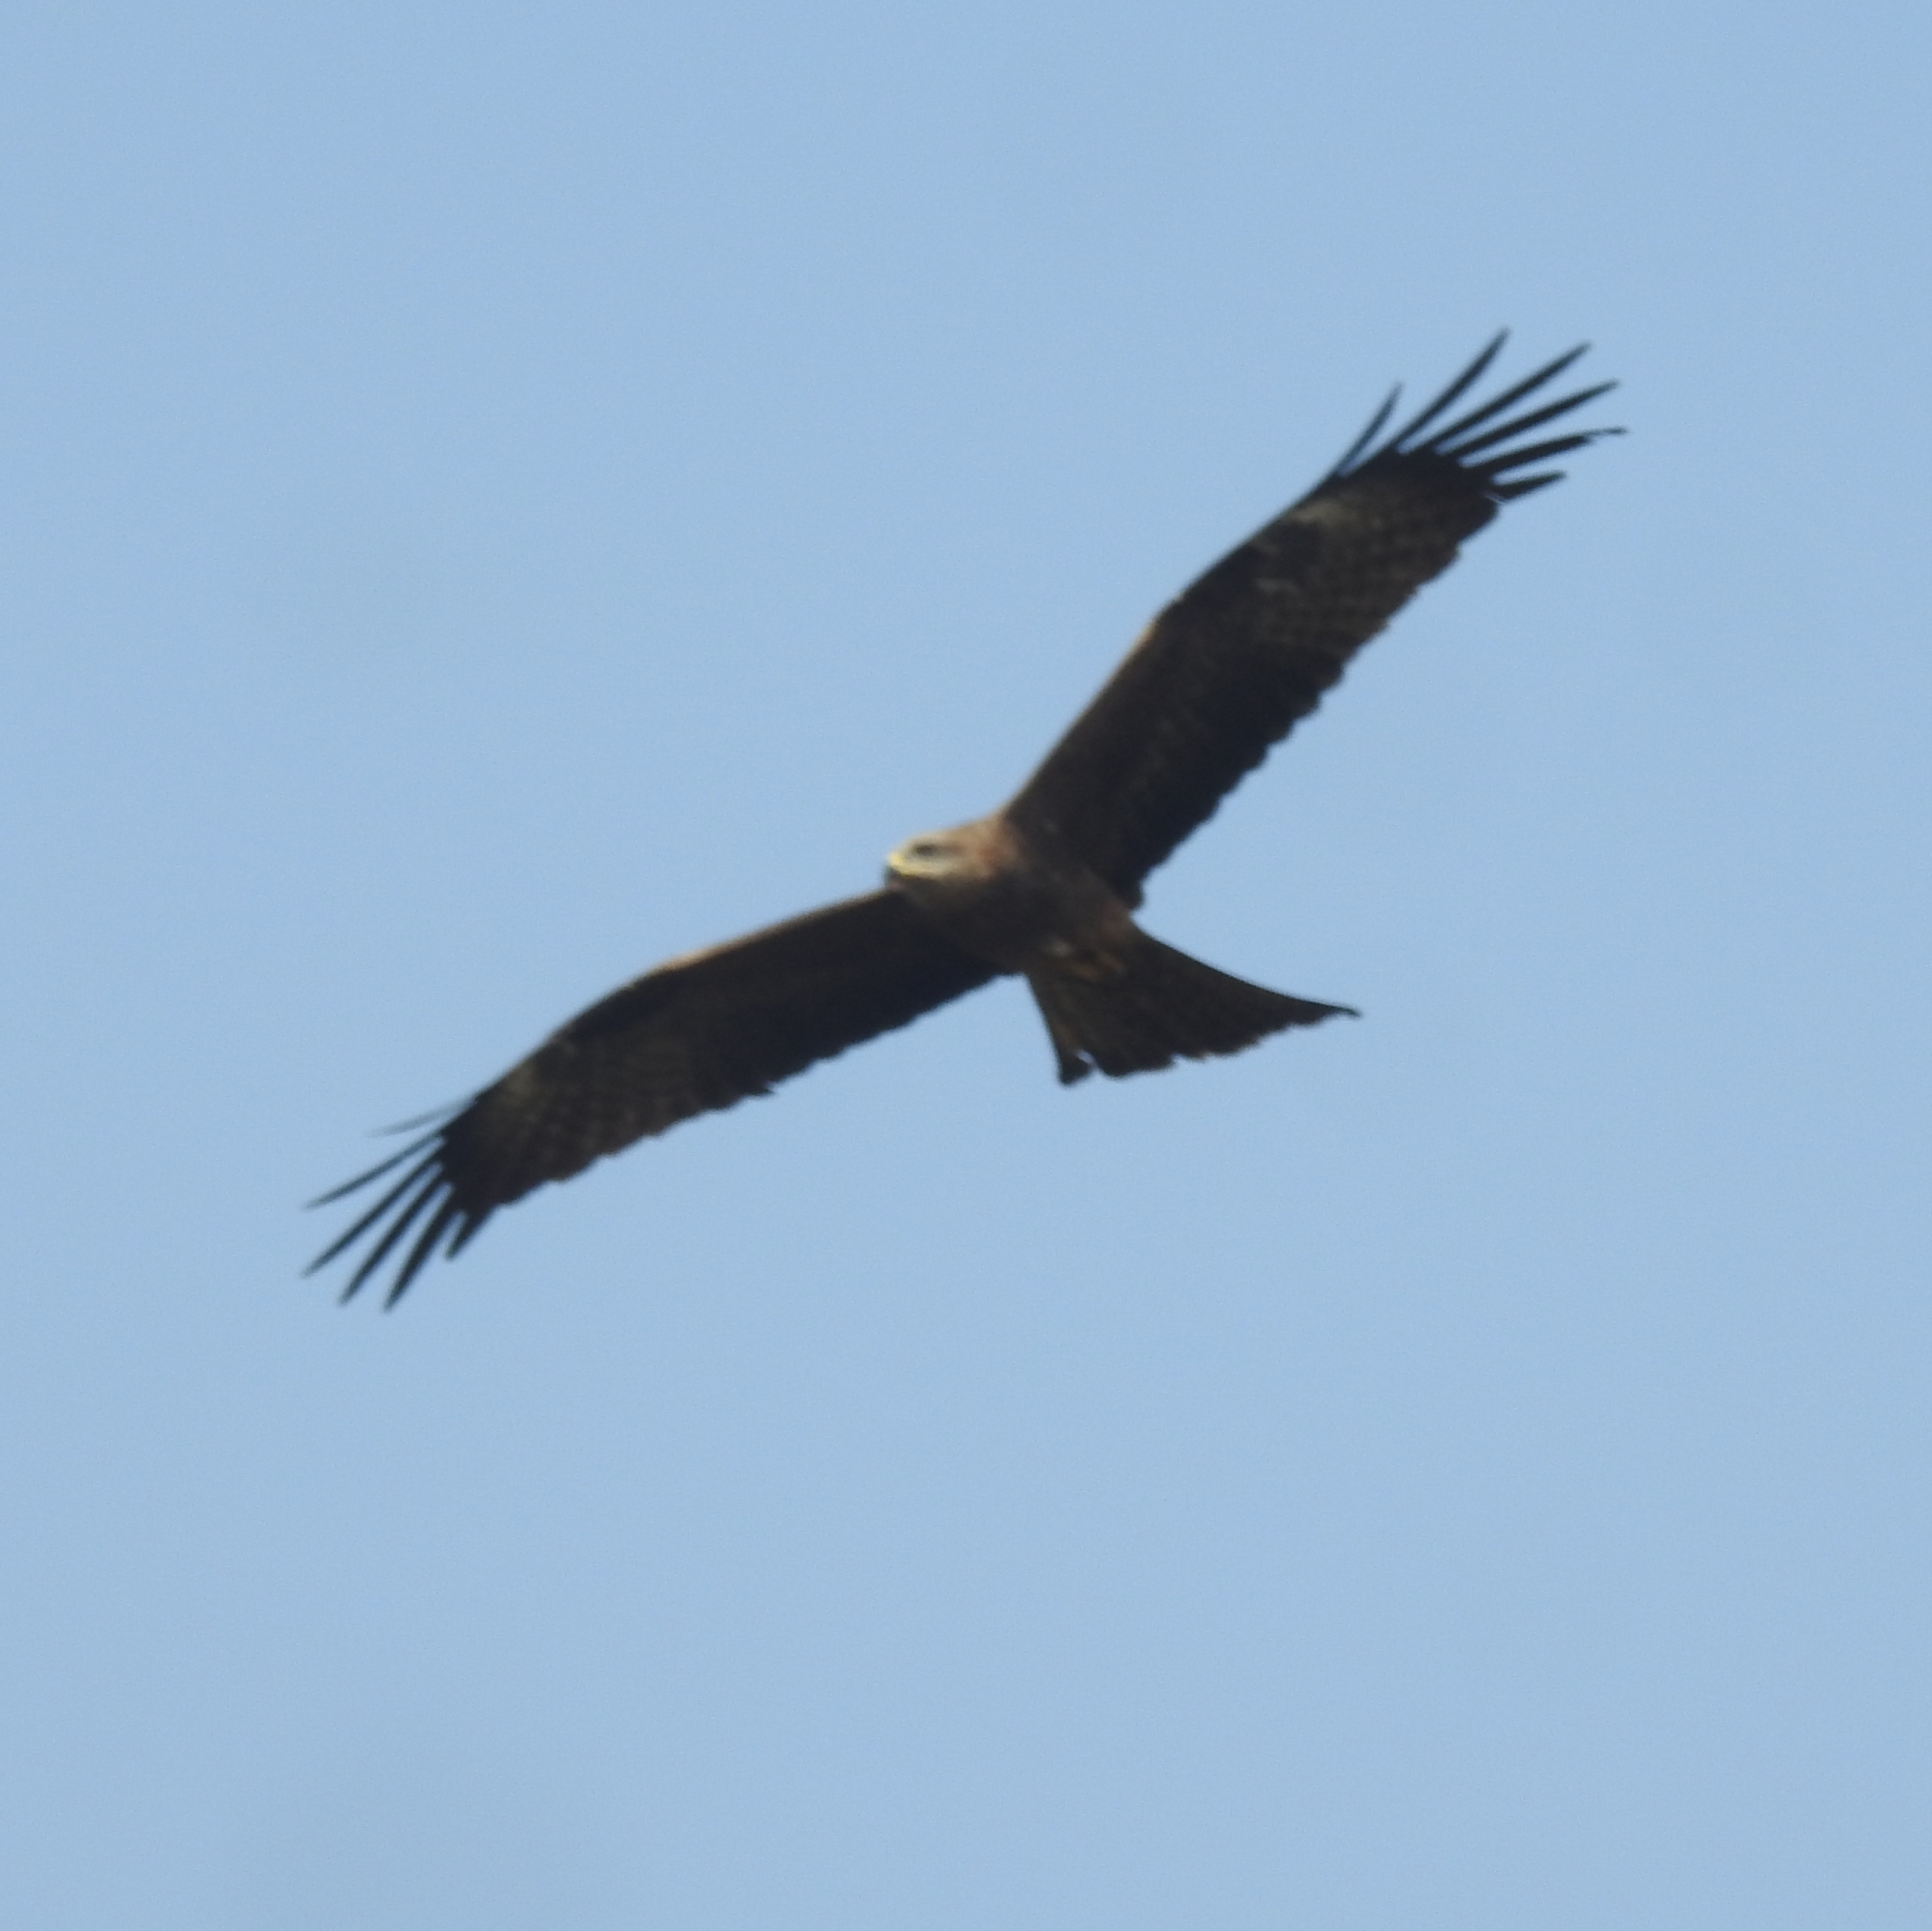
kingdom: Animalia
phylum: Chordata
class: Aves
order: Accipitriformes
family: Accipitridae
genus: Milvus
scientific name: Milvus migrans
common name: Black kite
